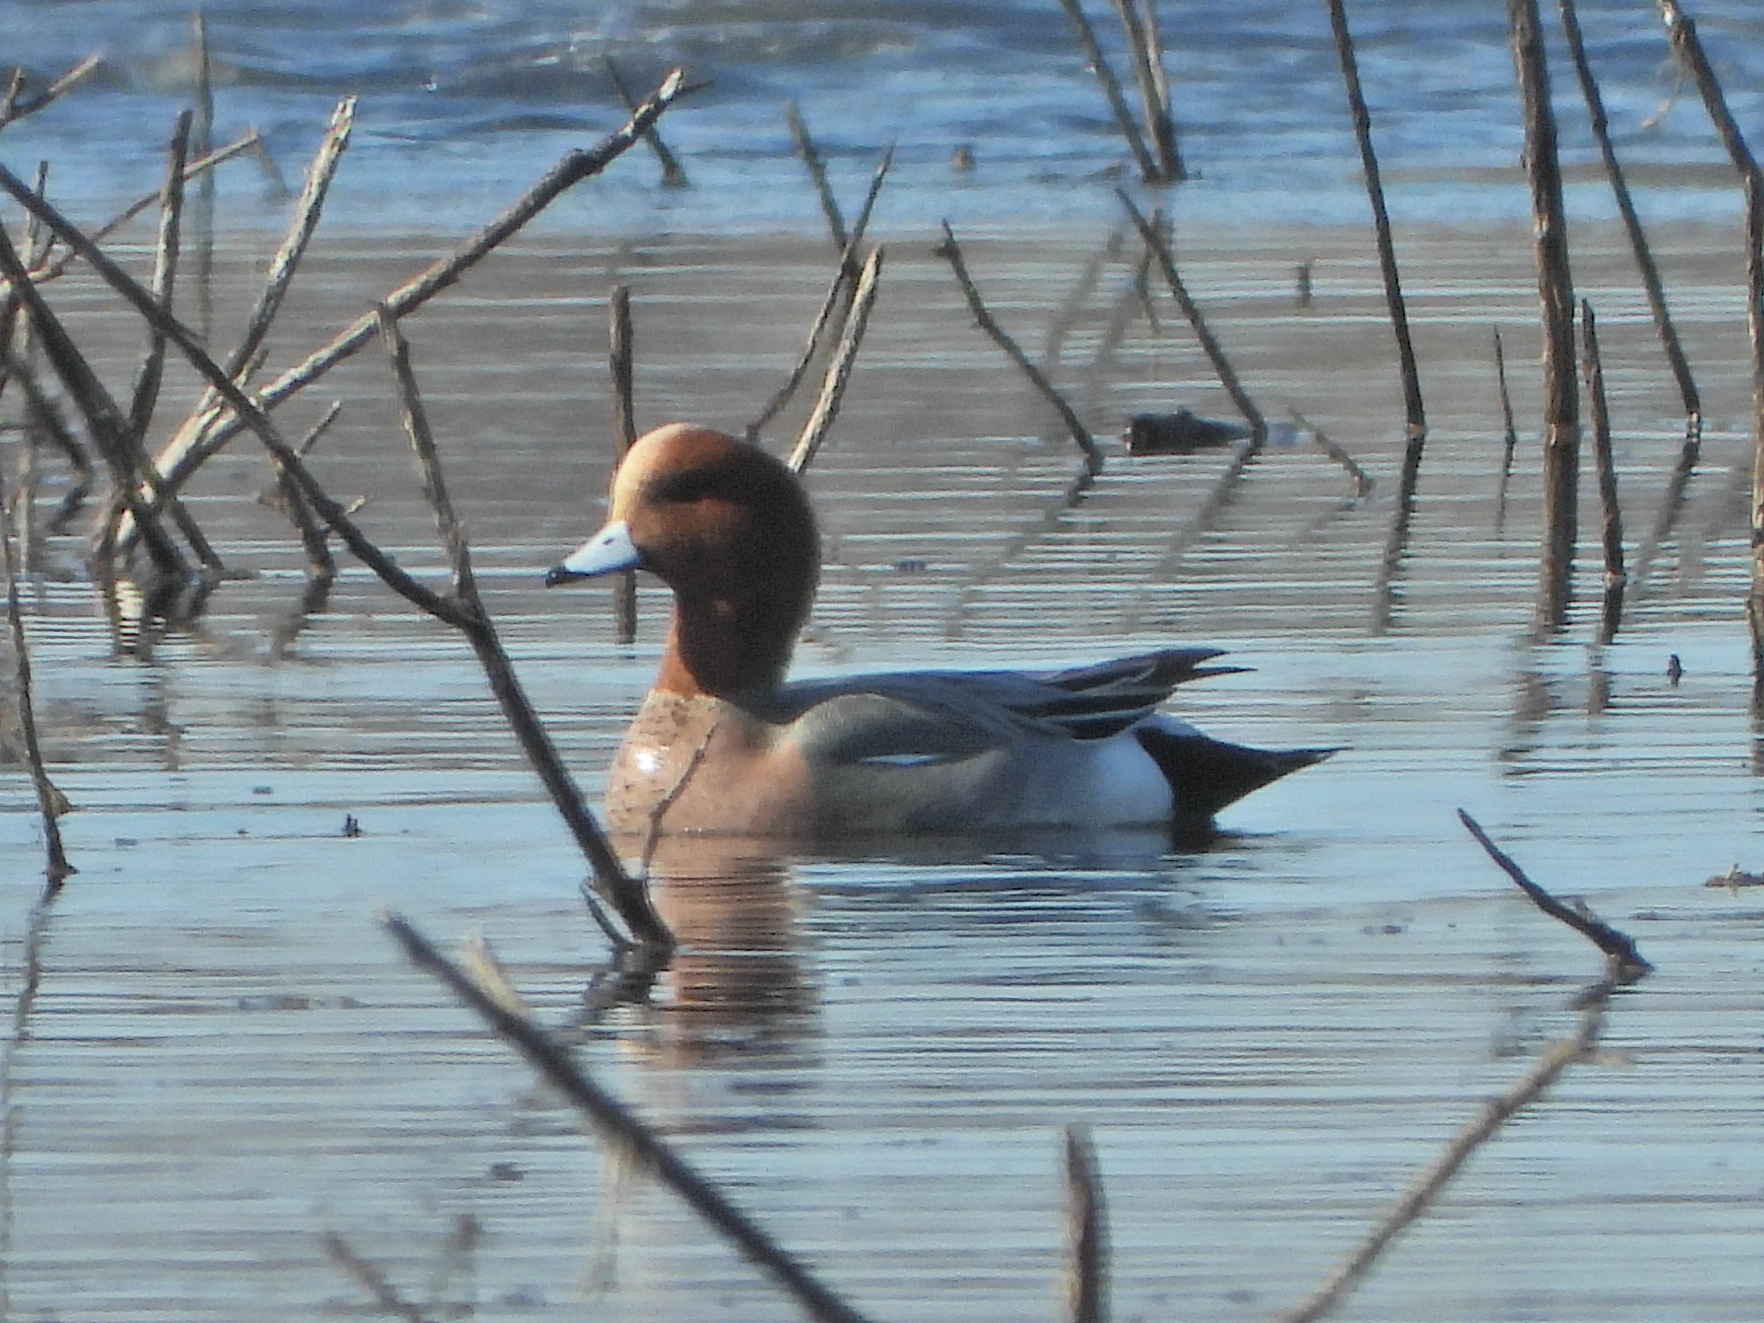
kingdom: Animalia
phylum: Chordata
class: Aves
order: Anseriformes
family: Anatidae
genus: Mareca
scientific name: Mareca penelope
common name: Eurasian wigeon
